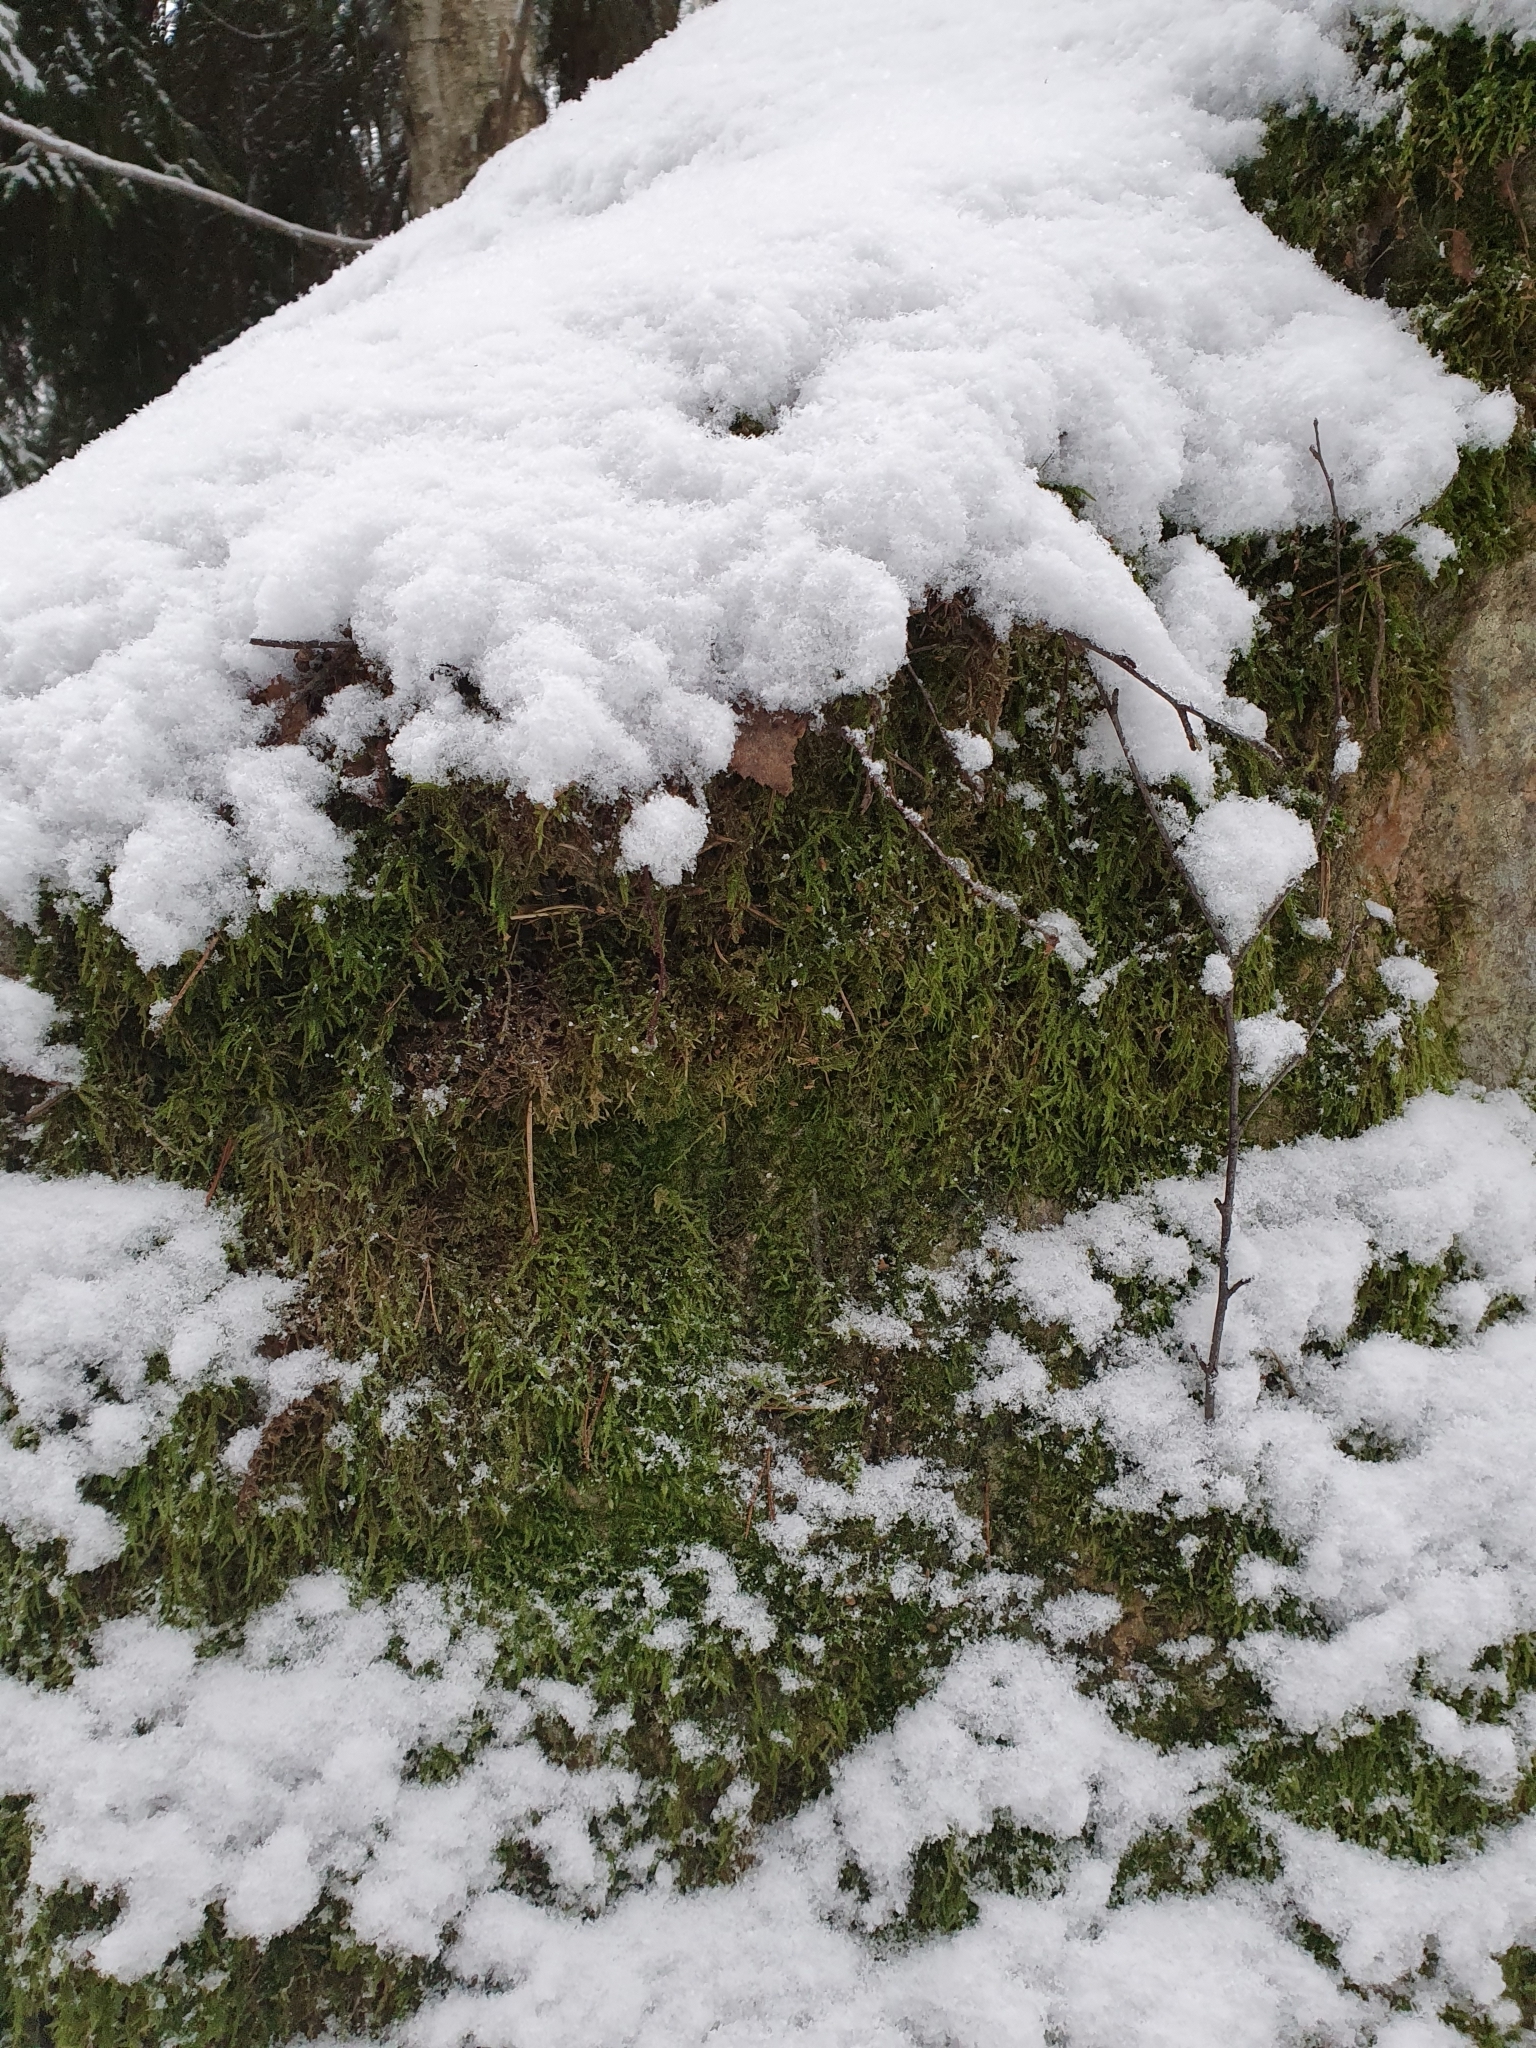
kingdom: Plantae
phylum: Bryophyta
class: Bryopsida
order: Hypnales
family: Hypnaceae
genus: Hypnum
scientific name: Hypnum cupressiforme
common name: Cypress-leaved plait-moss
